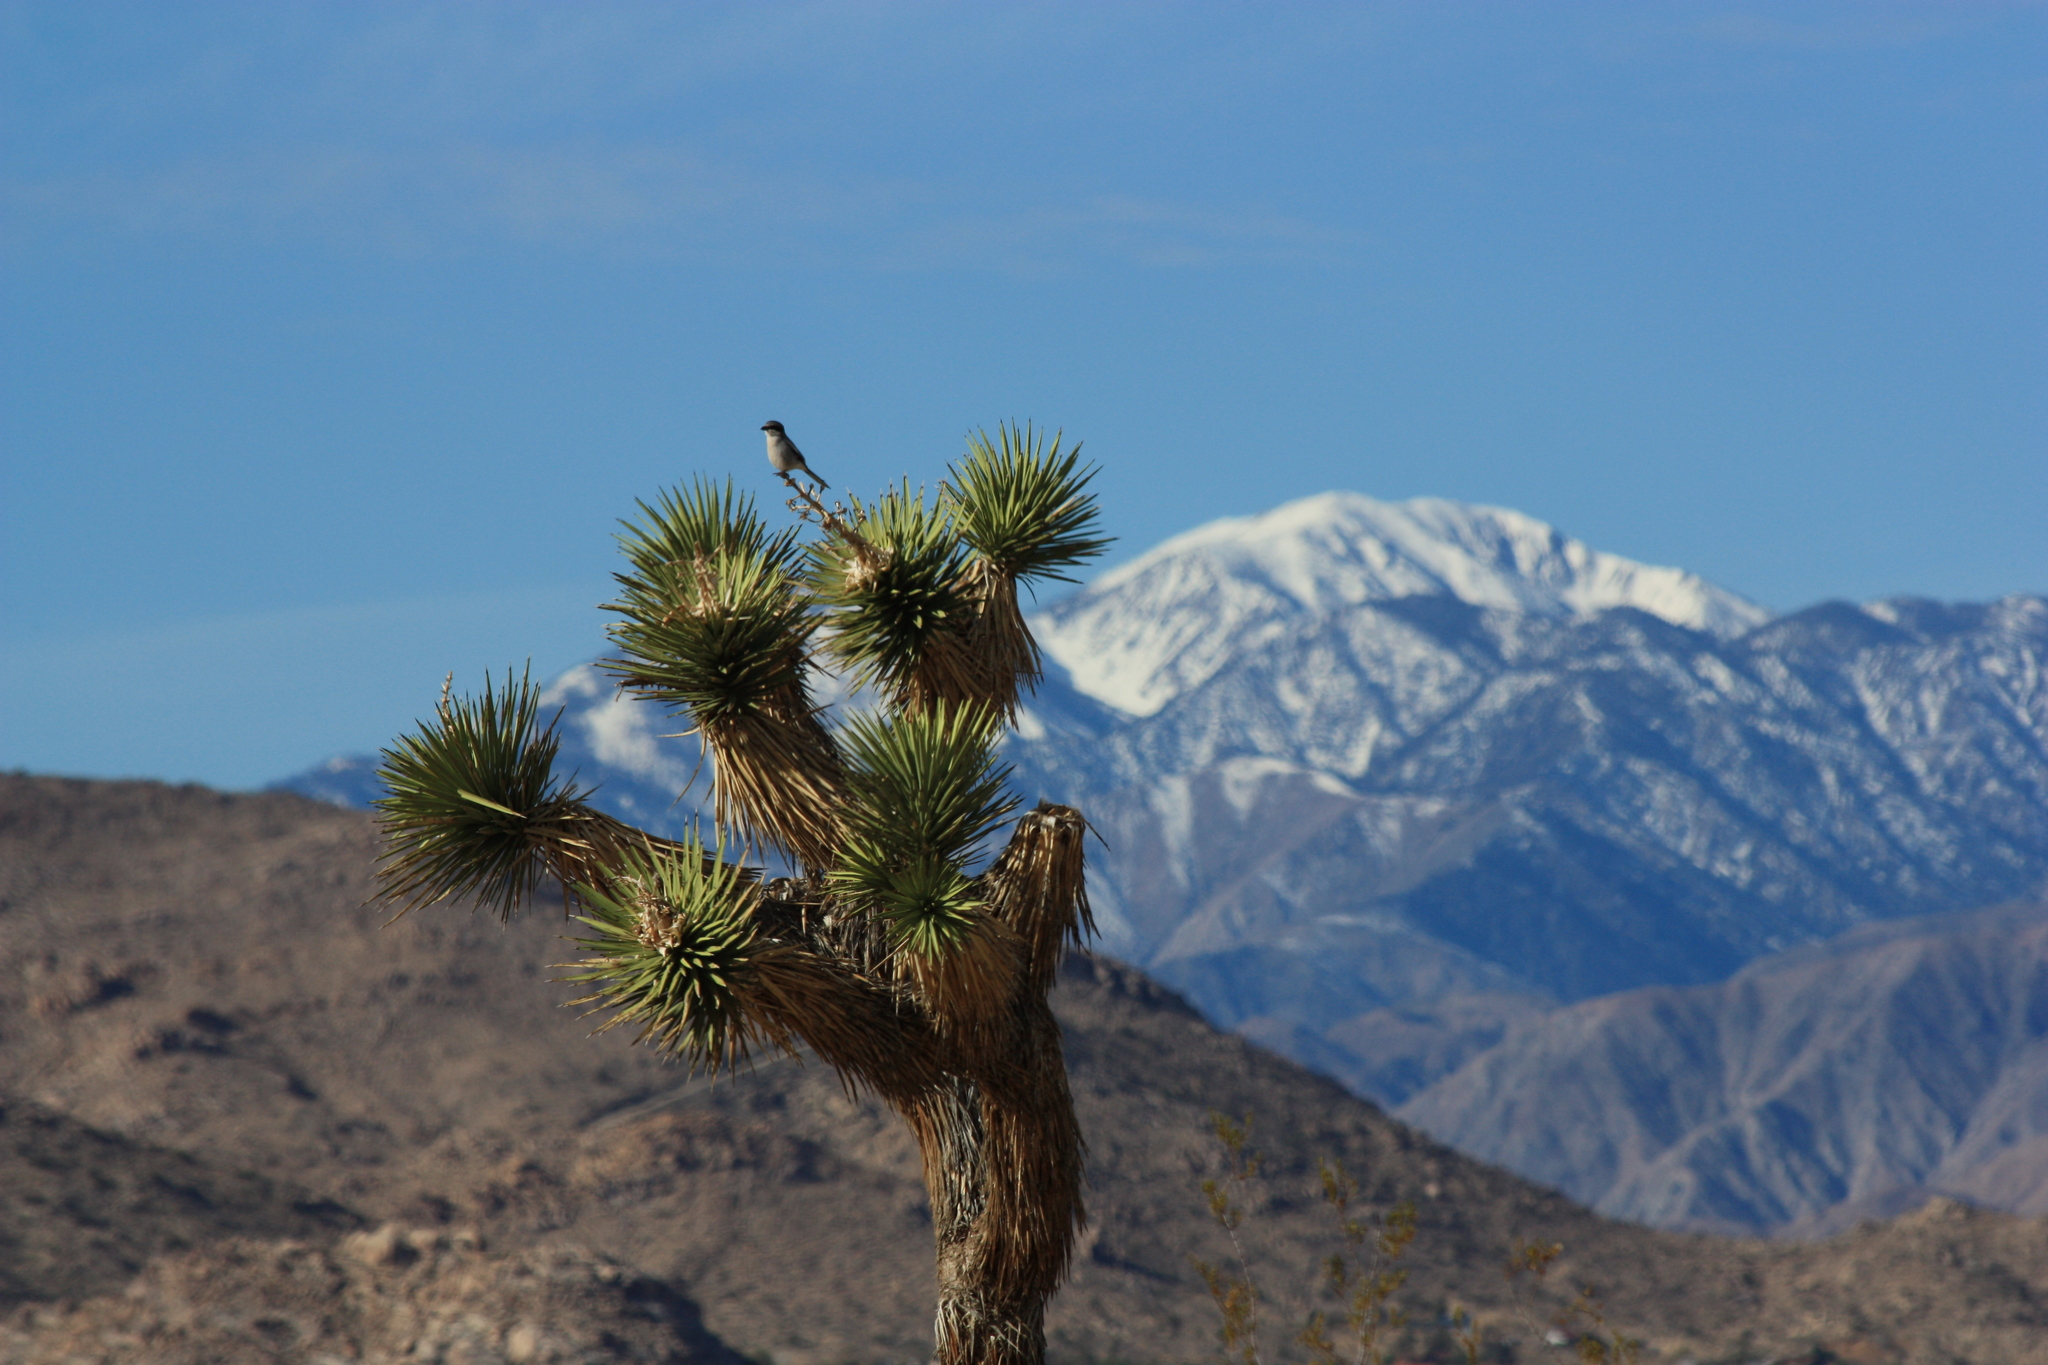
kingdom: Animalia
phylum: Chordata
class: Aves
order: Passeriformes
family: Laniidae
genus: Lanius
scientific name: Lanius ludovicianus
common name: Loggerhead shrike
